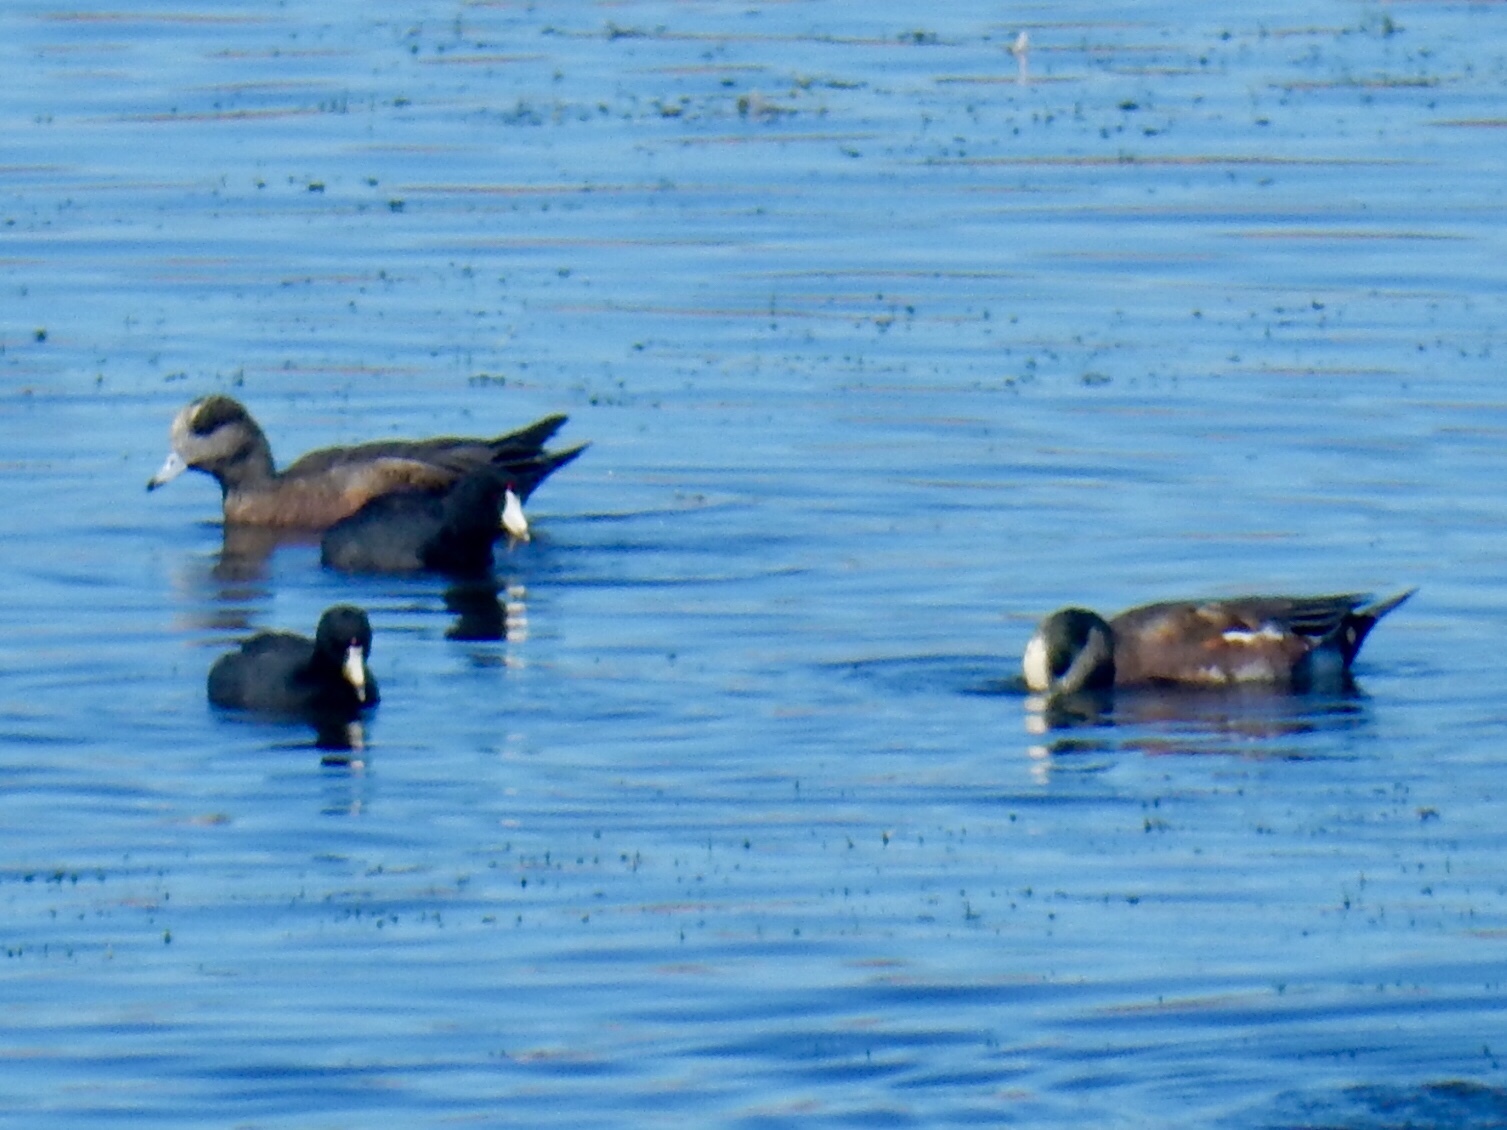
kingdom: Animalia
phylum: Chordata
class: Aves
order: Anseriformes
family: Anatidae
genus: Mareca
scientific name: Mareca americana
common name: American wigeon
